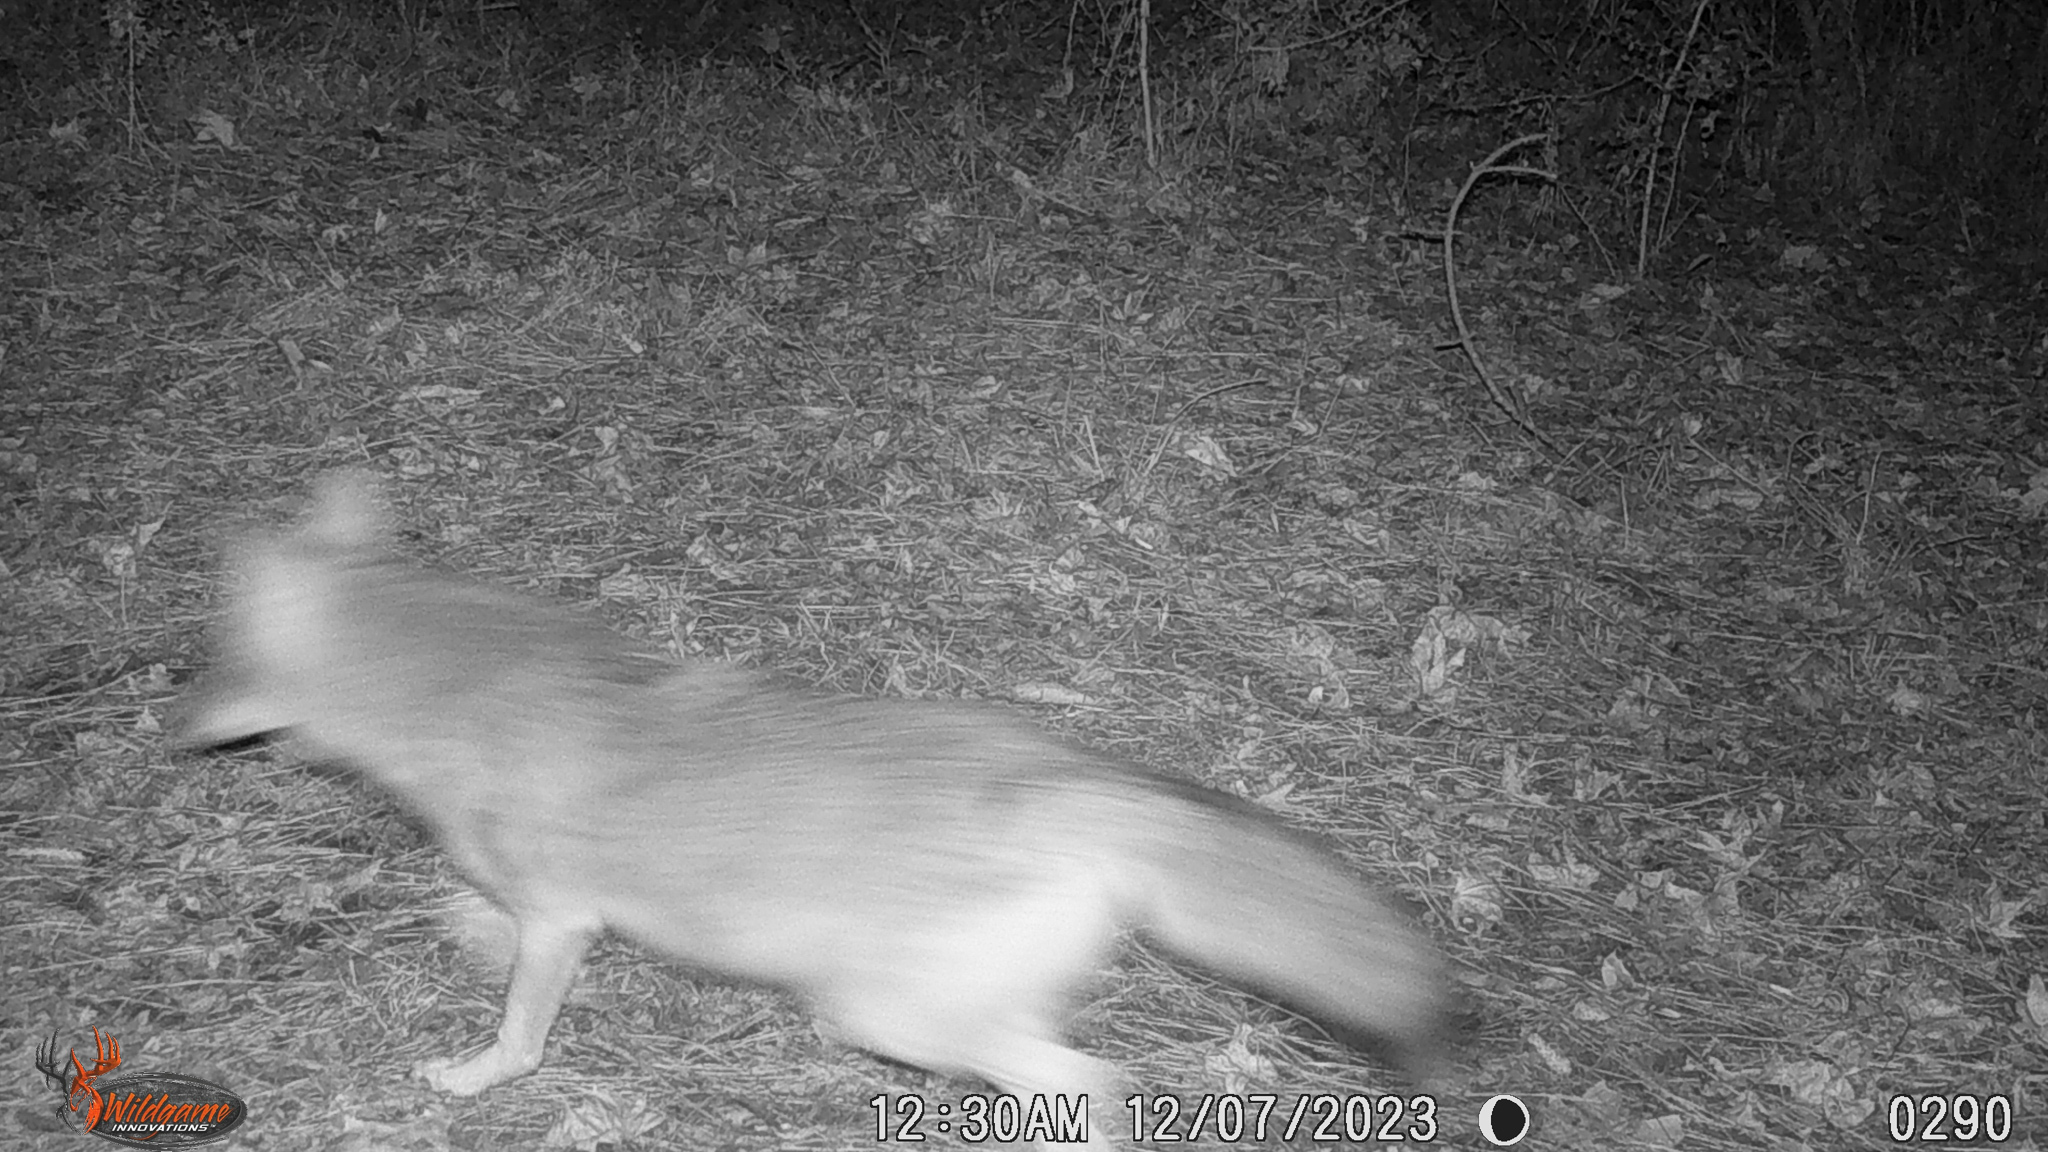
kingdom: Animalia
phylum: Chordata
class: Mammalia
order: Carnivora
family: Canidae
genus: Canis
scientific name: Canis latrans
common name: Coyote
